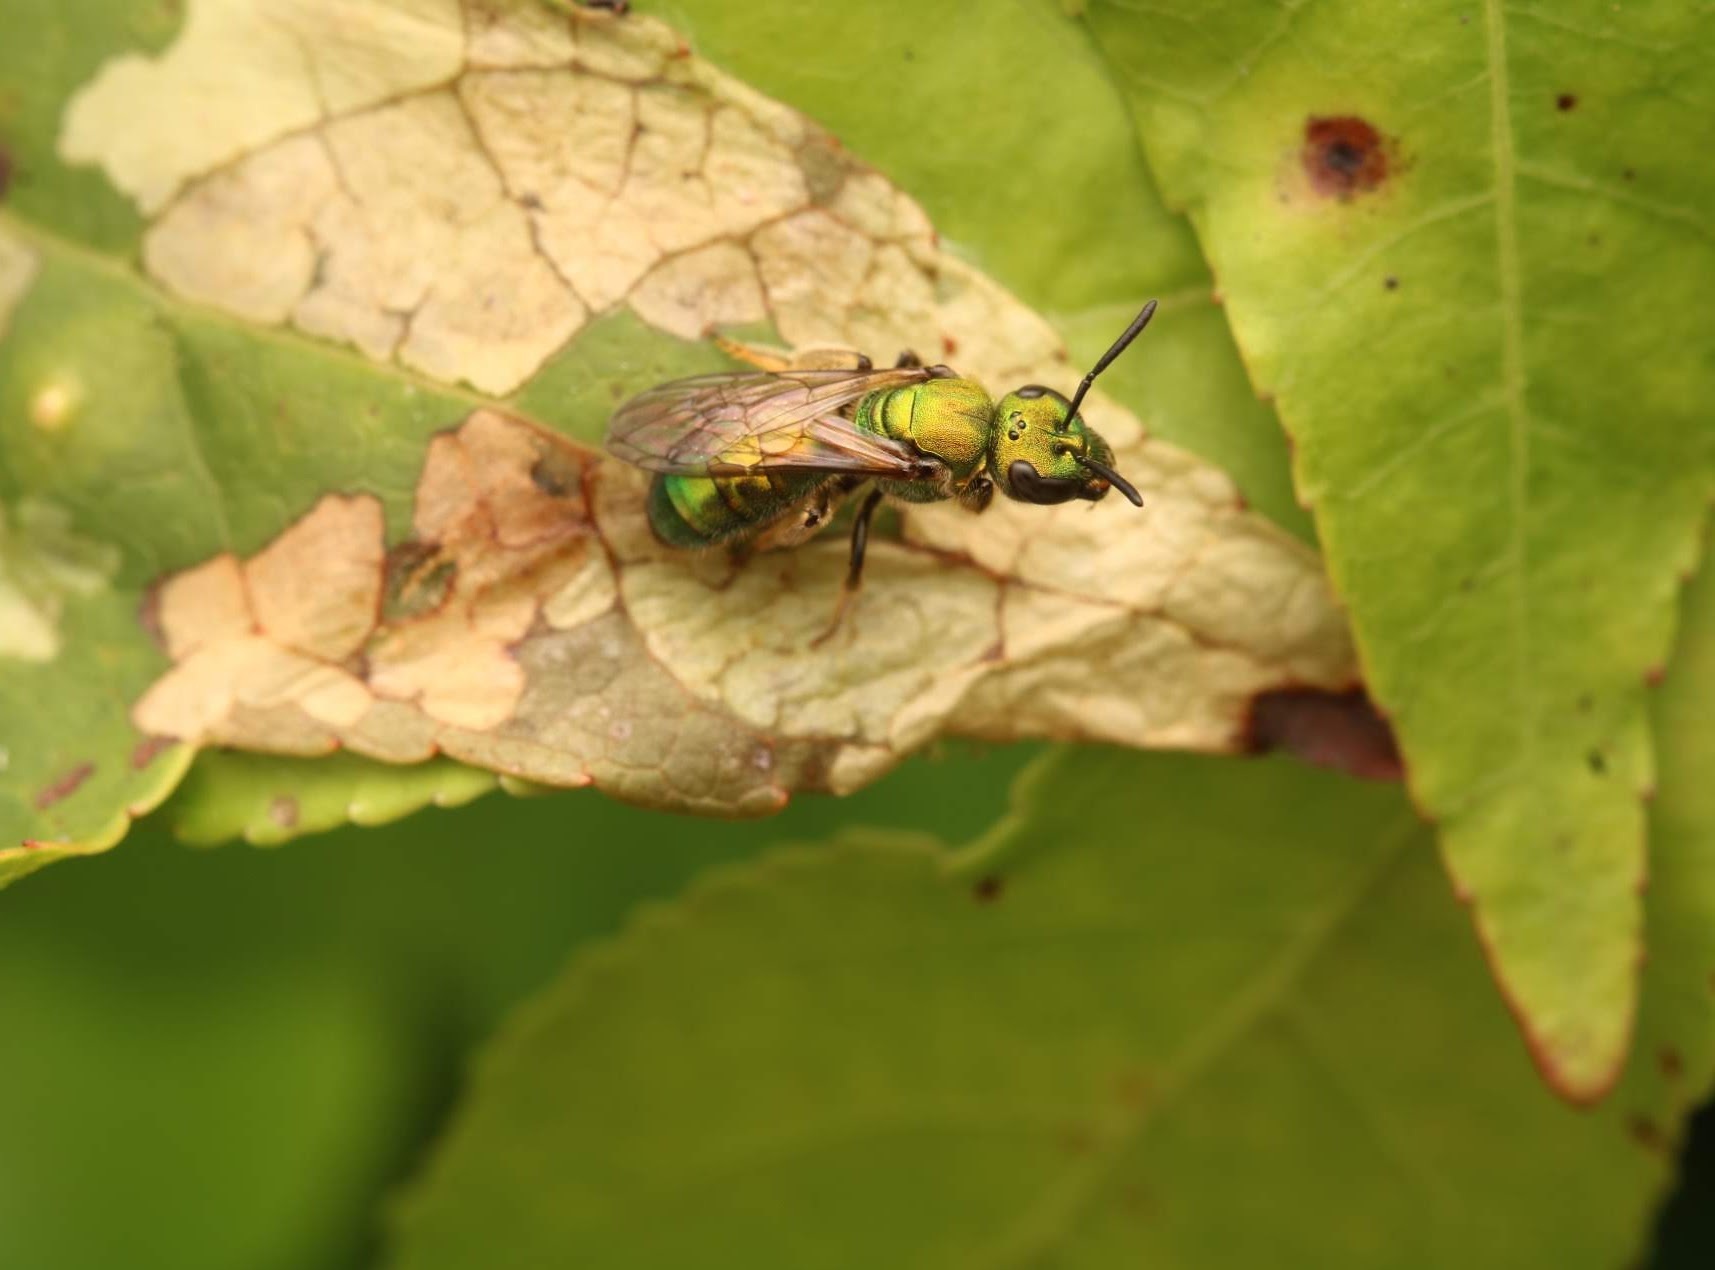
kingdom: Animalia
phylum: Arthropoda
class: Insecta
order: Hymenoptera
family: Halictidae
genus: Augochlora
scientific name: Augochlora pura
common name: Pure green sweat bee
